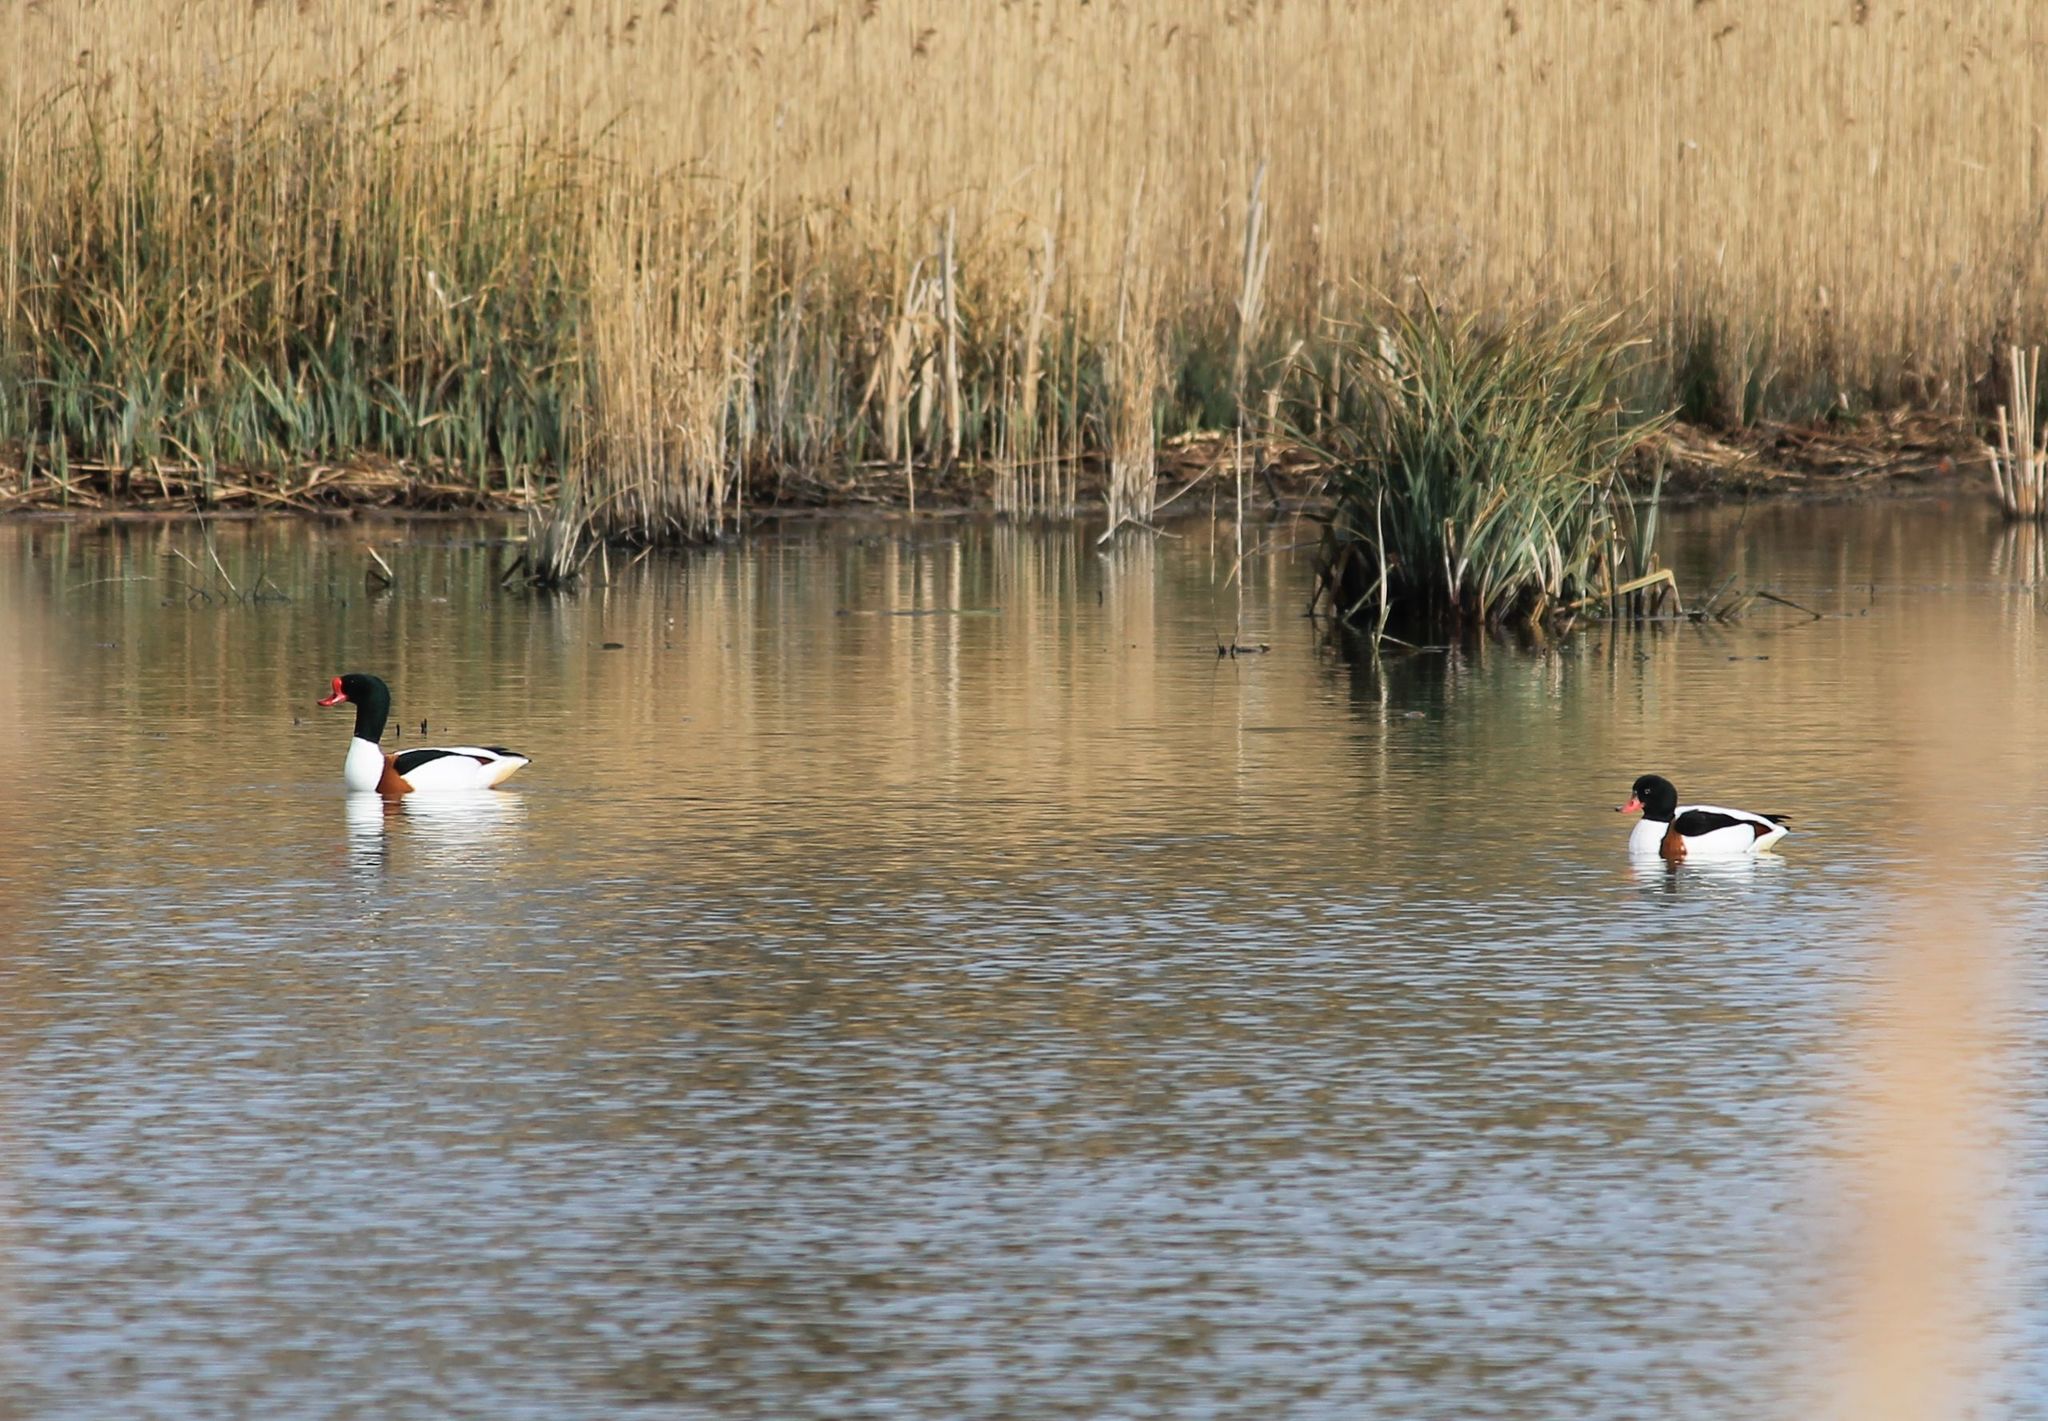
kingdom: Animalia
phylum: Chordata
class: Aves
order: Anseriformes
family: Anatidae
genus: Tadorna
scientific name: Tadorna tadorna
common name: Common shelduck
